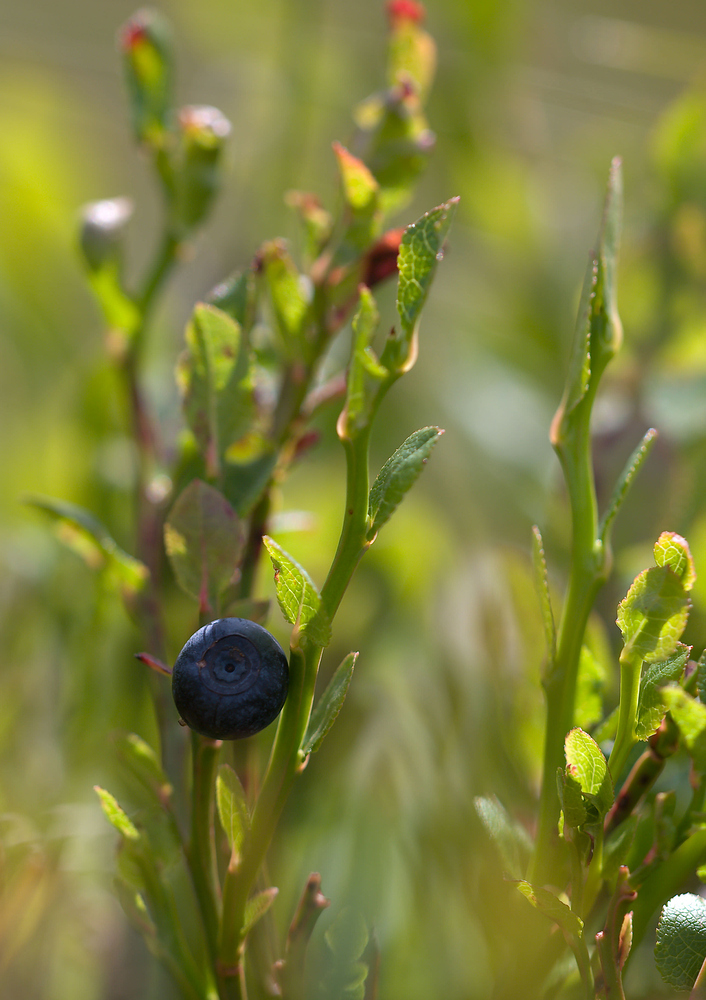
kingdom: Plantae
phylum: Tracheophyta
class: Magnoliopsida
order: Ericales
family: Ericaceae
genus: Vaccinium
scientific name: Vaccinium myrtillus
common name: Bilberry
